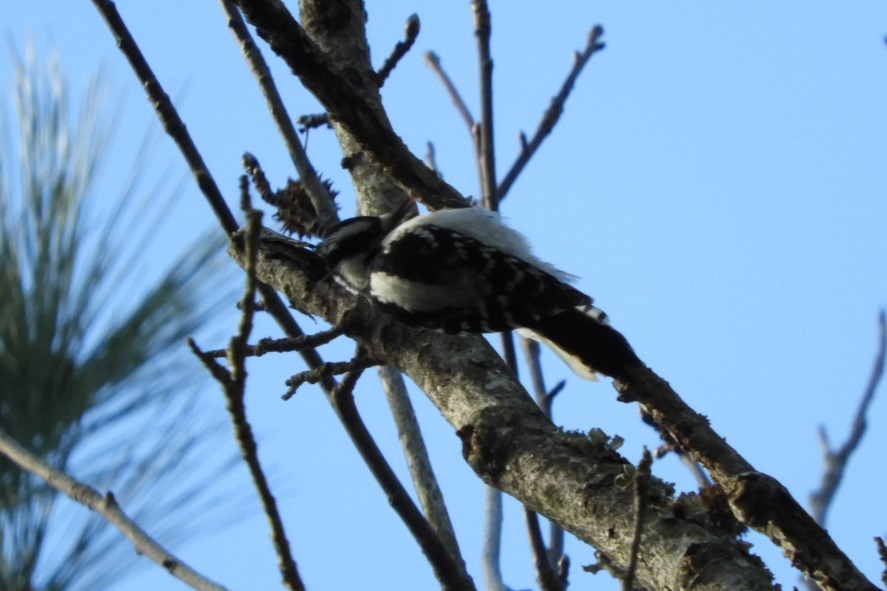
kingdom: Animalia
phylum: Chordata
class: Aves
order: Piciformes
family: Picidae
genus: Dryobates
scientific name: Dryobates pubescens
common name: Downy woodpecker
